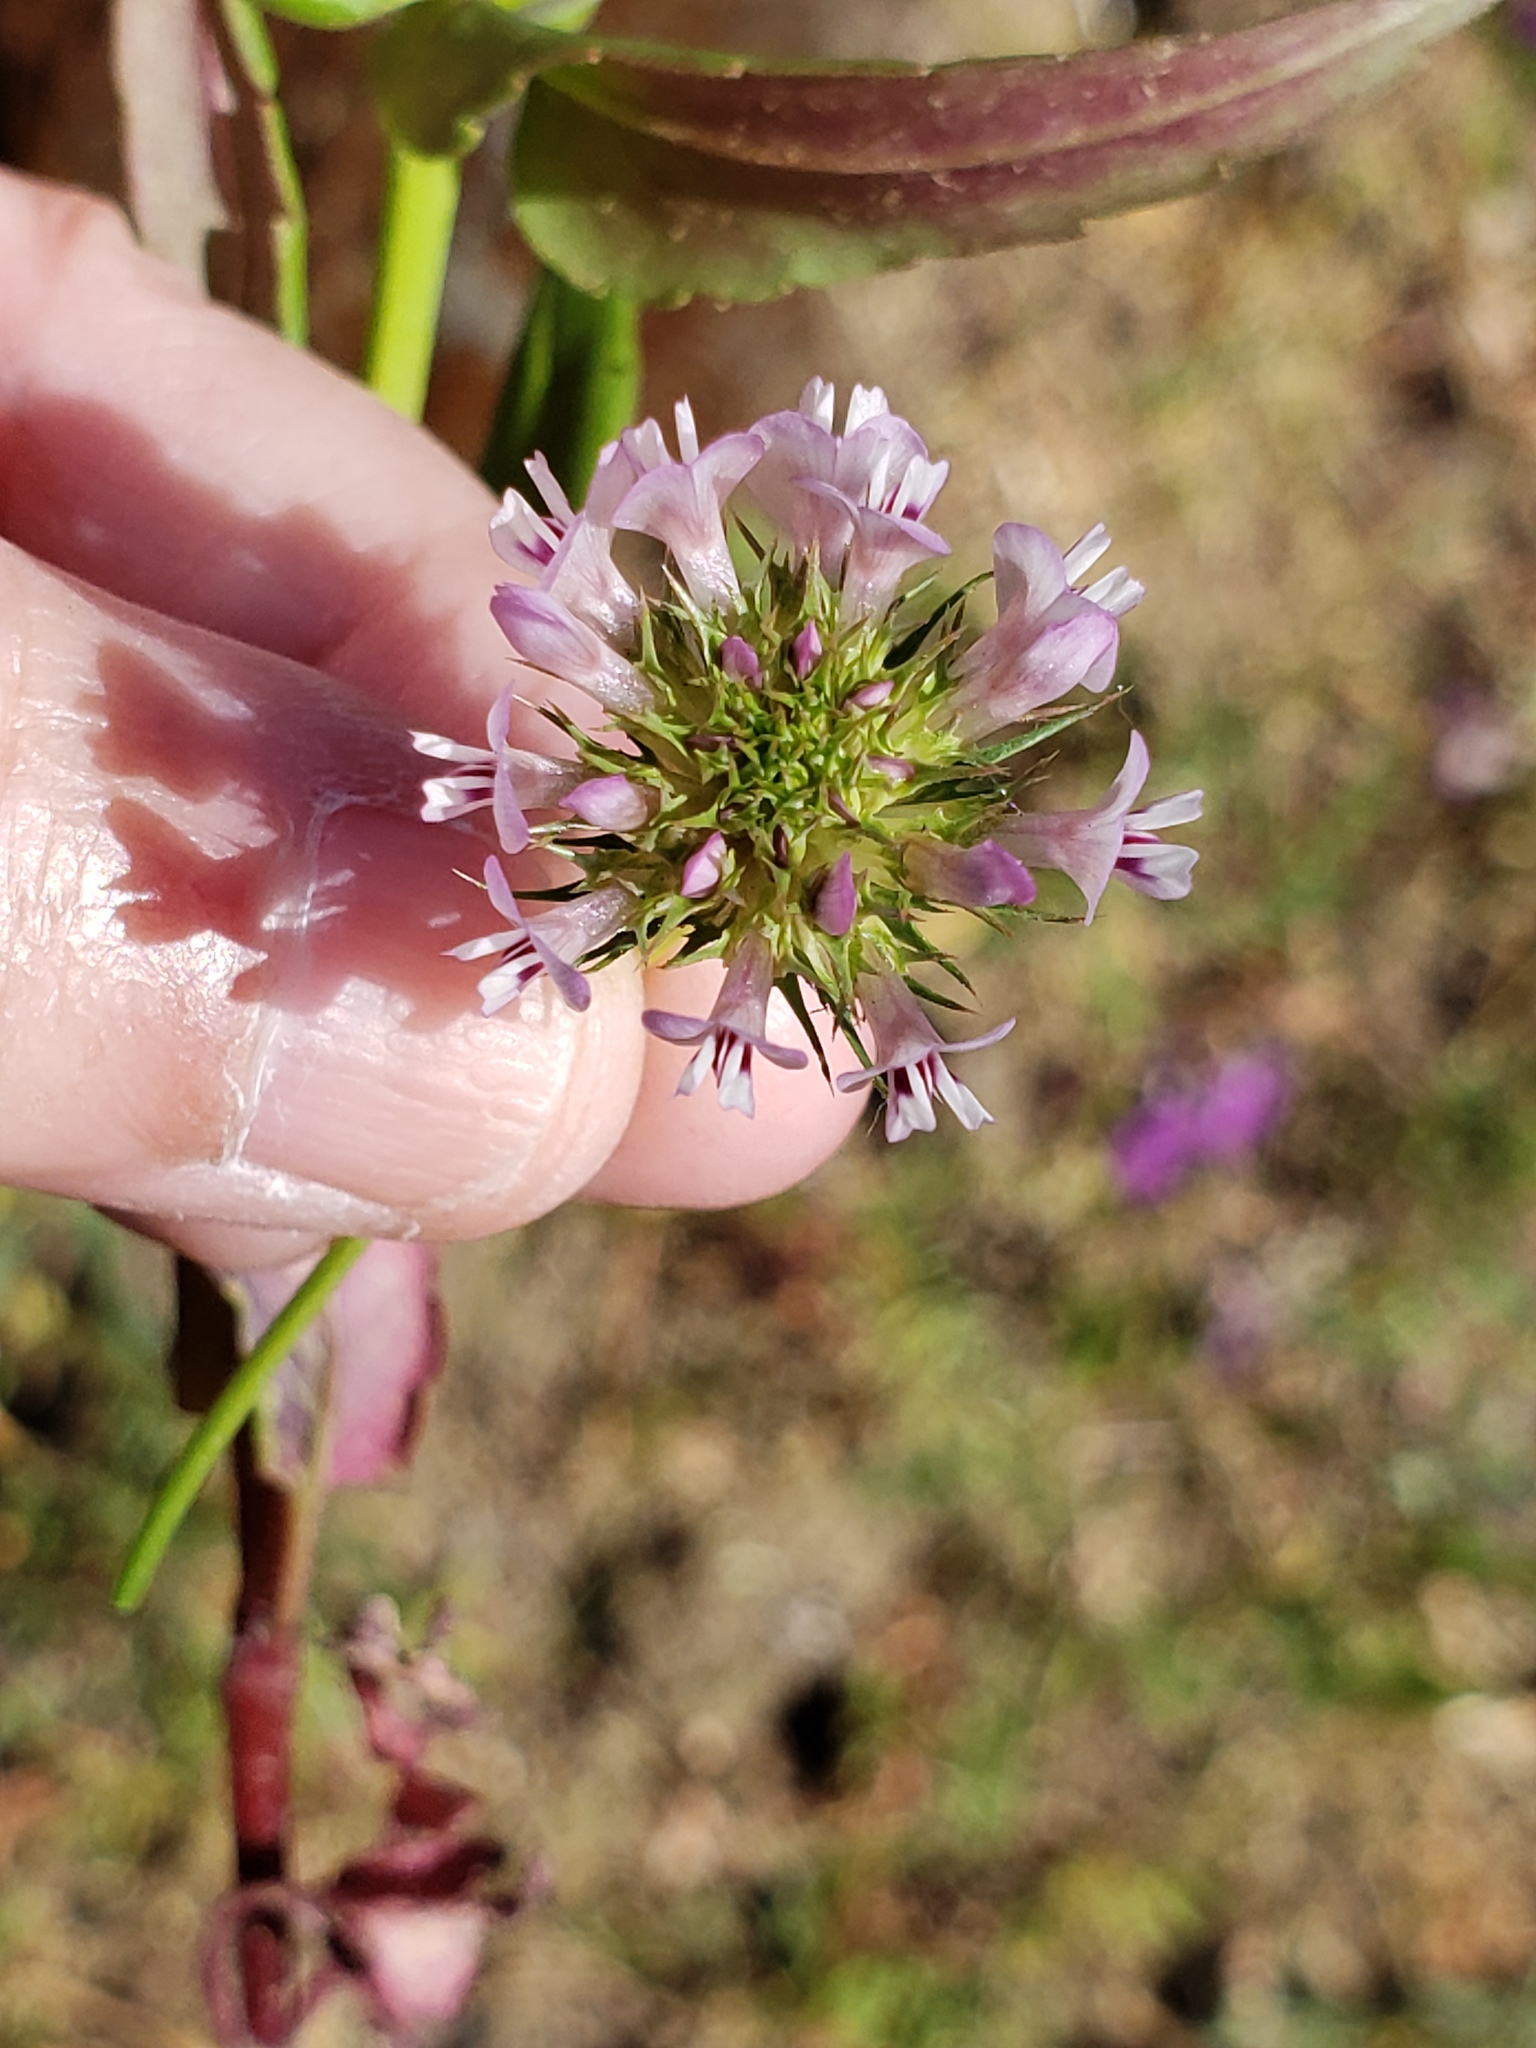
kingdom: Plantae
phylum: Tracheophyta
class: Magnoliopsida
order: Fabales
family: Fabaceae
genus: Trifolium
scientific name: Trifolium willdenovii
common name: Tomcat clover
